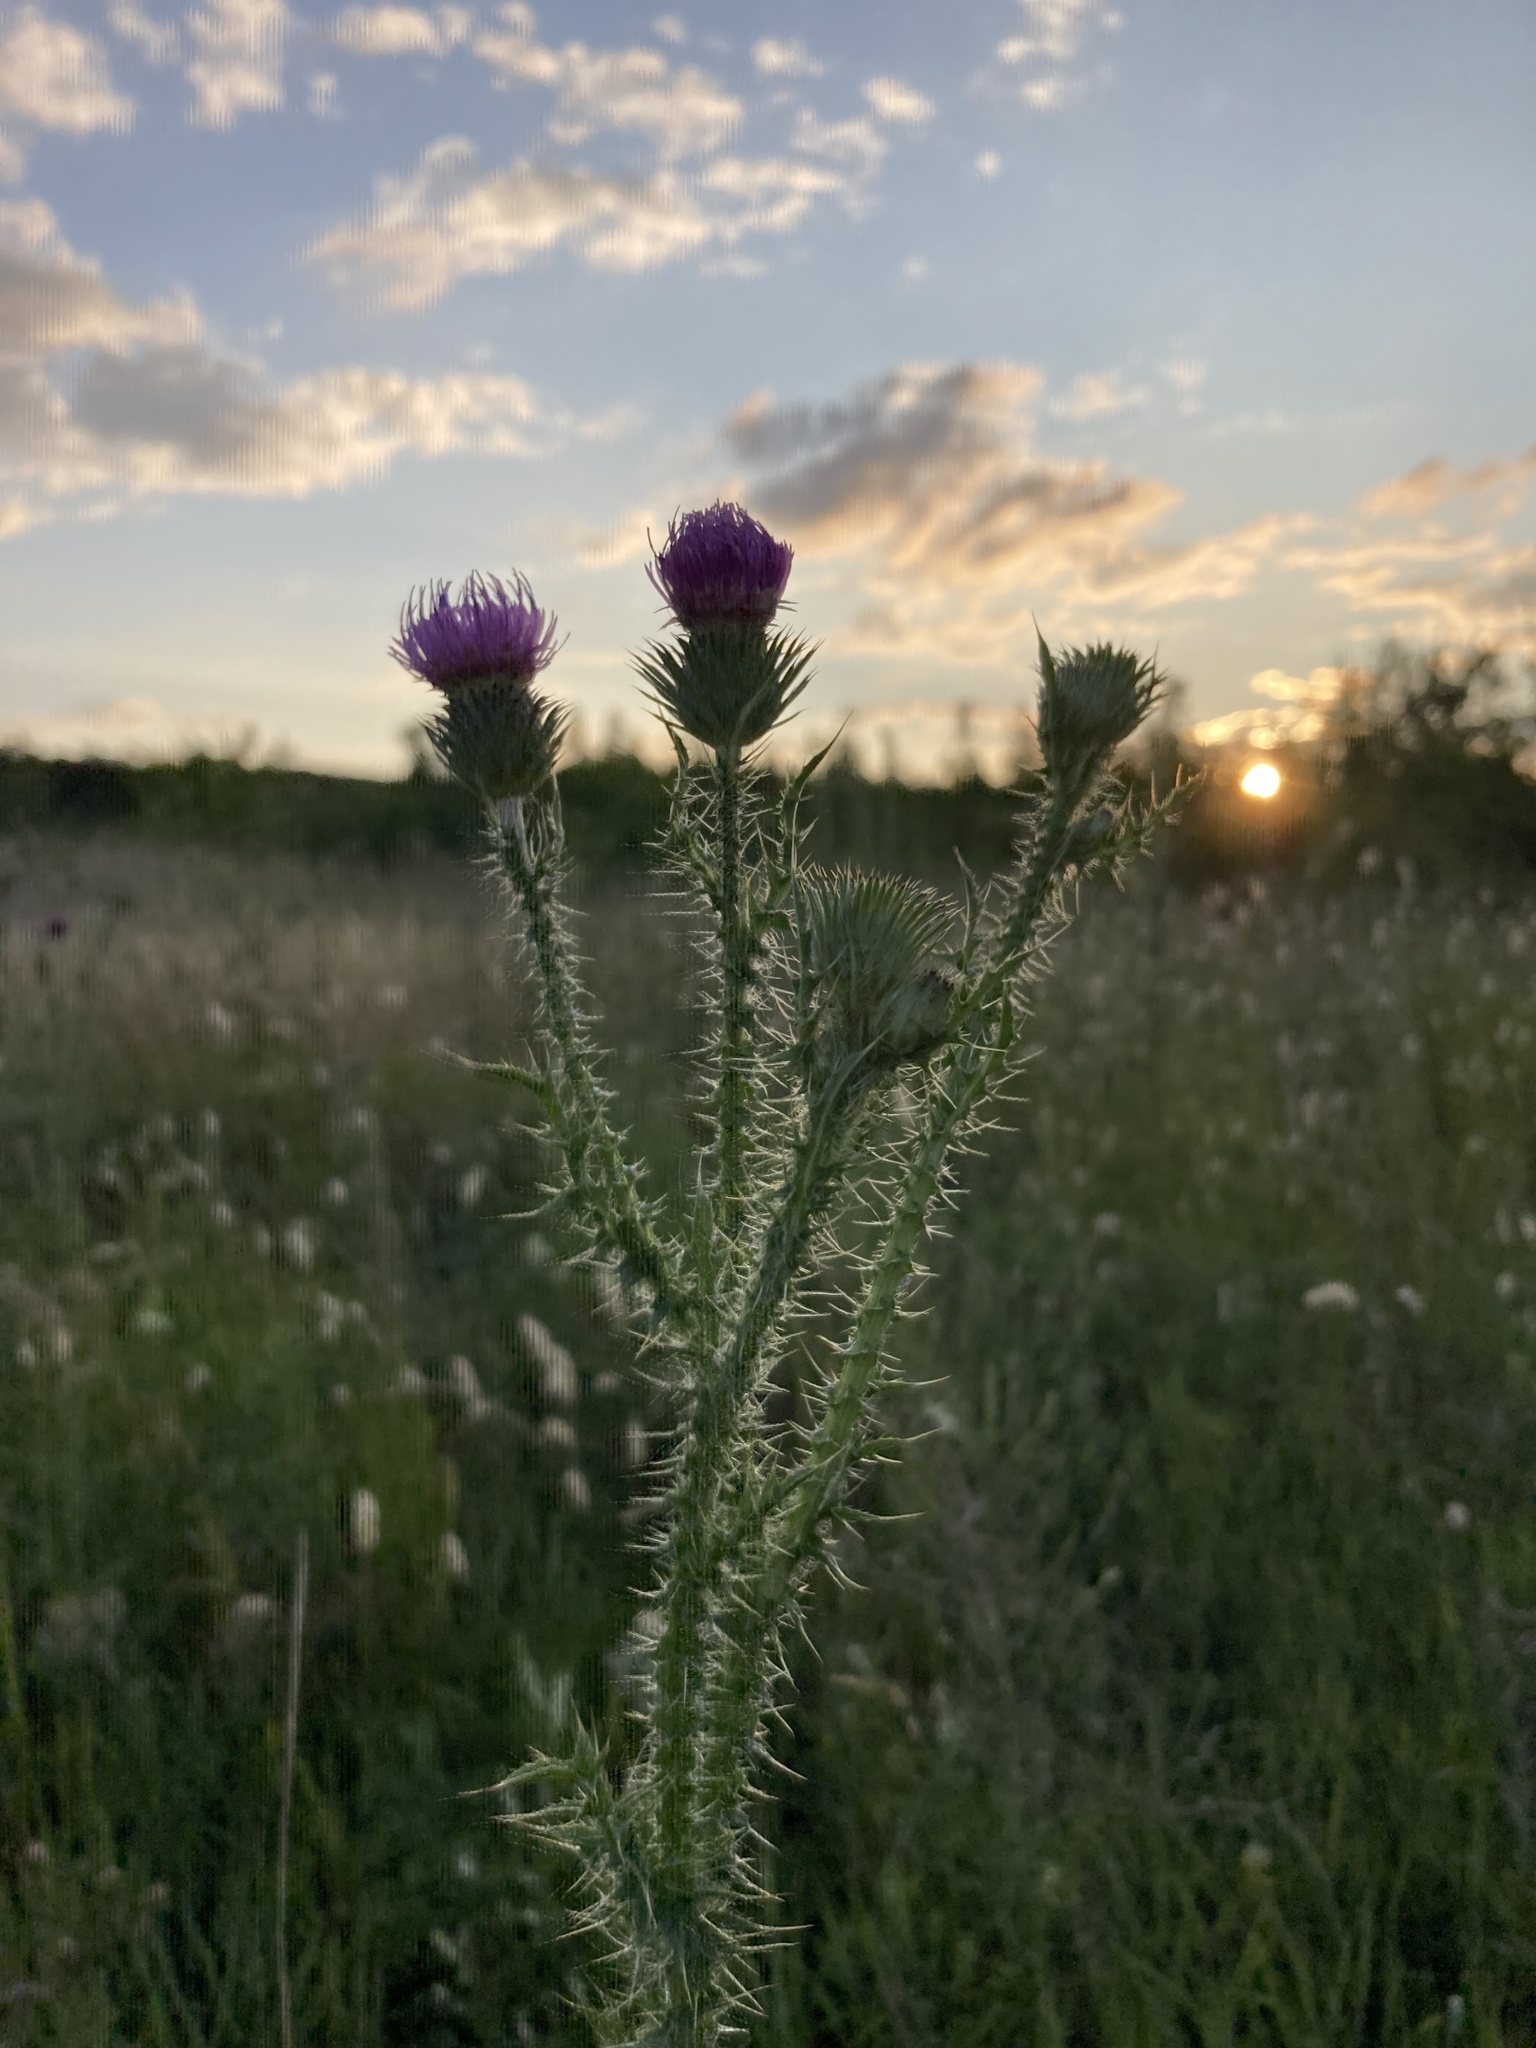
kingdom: Plantae
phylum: Tracheophyta
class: Magnoliopsida
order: Asterales
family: Asteraceae
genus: Carduus
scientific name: Carduus acanthoides
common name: Plumeless thistle
